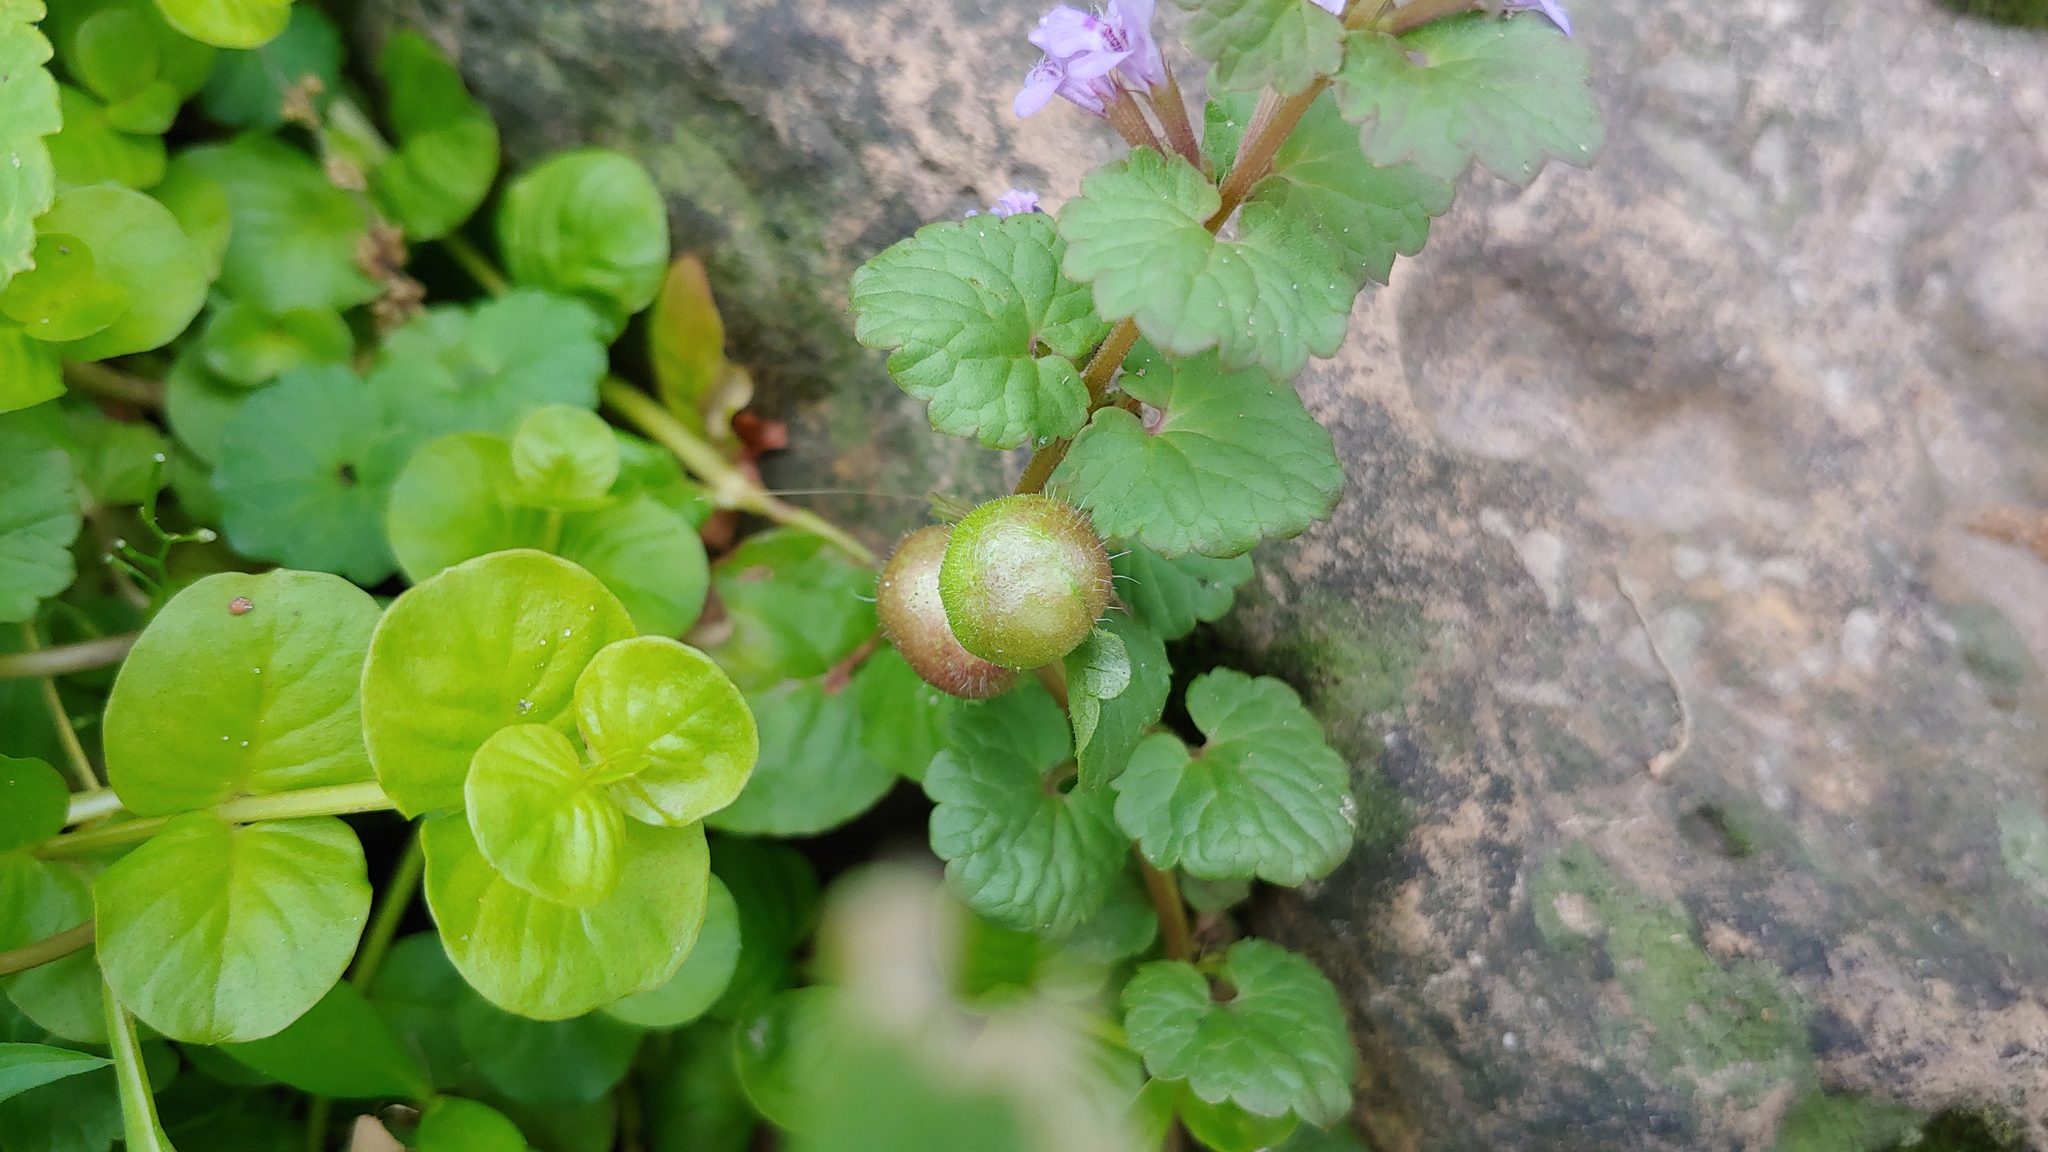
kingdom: Animalia
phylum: Arthropoda
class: Insecta
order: Hymenoptera
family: Cynipidae
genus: Liposthenes
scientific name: Liposthenes glechomae
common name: Gall wasp
